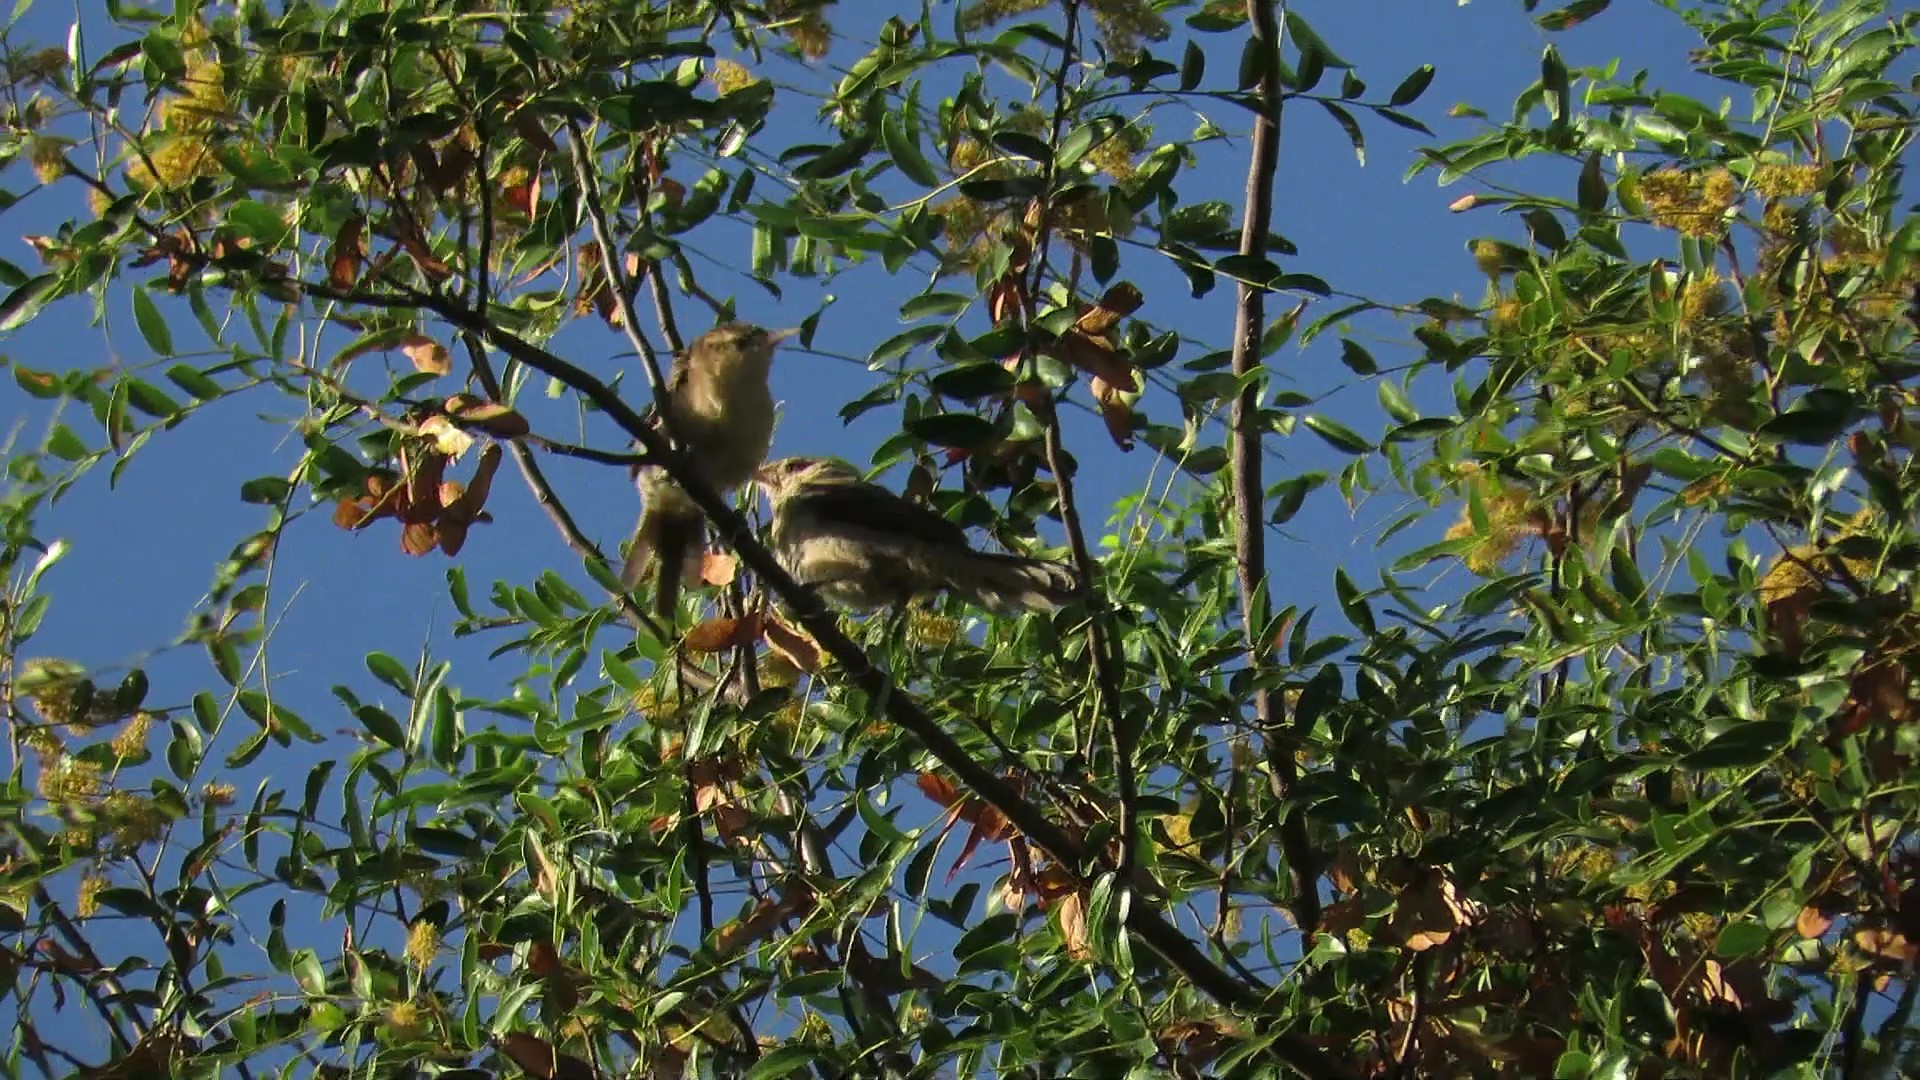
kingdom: Animalia
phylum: Chordata
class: Aves
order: Passeriformes
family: Troglodytidae
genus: Campylorhynchus
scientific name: Campylorhynchus turdinus
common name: Thrush-like wren
